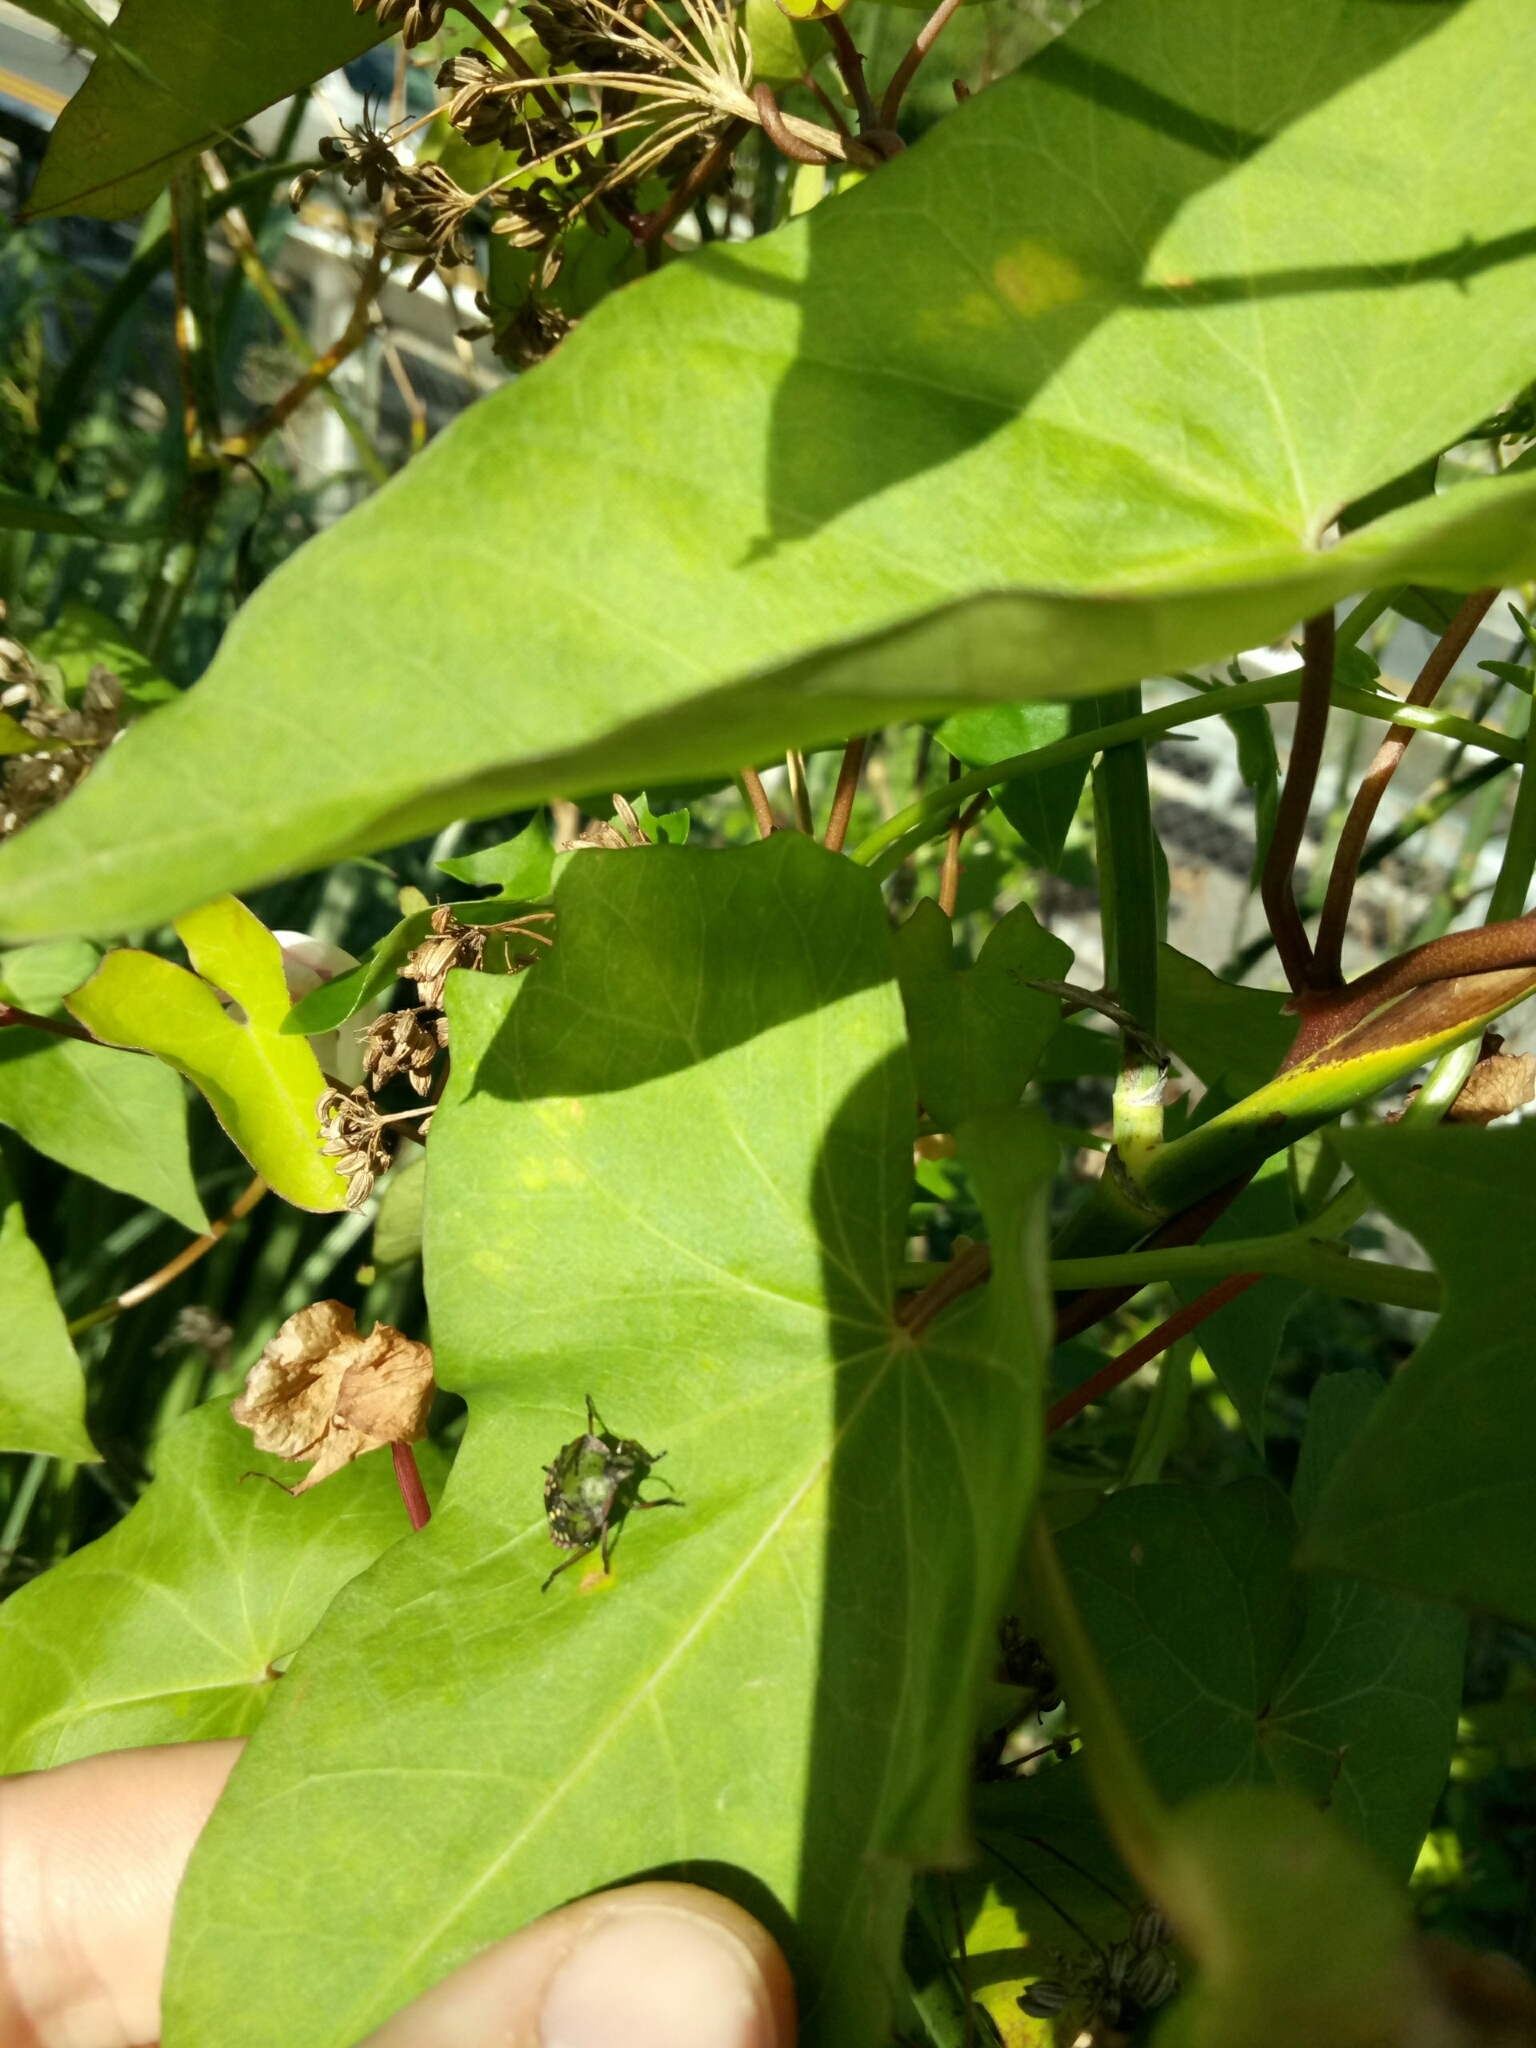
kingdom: Animalia
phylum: Arthropoda
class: Insecta
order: Hemiptera
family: Pentatomidae
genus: Nezara
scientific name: Nezara viridula
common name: Southern green stink bug
